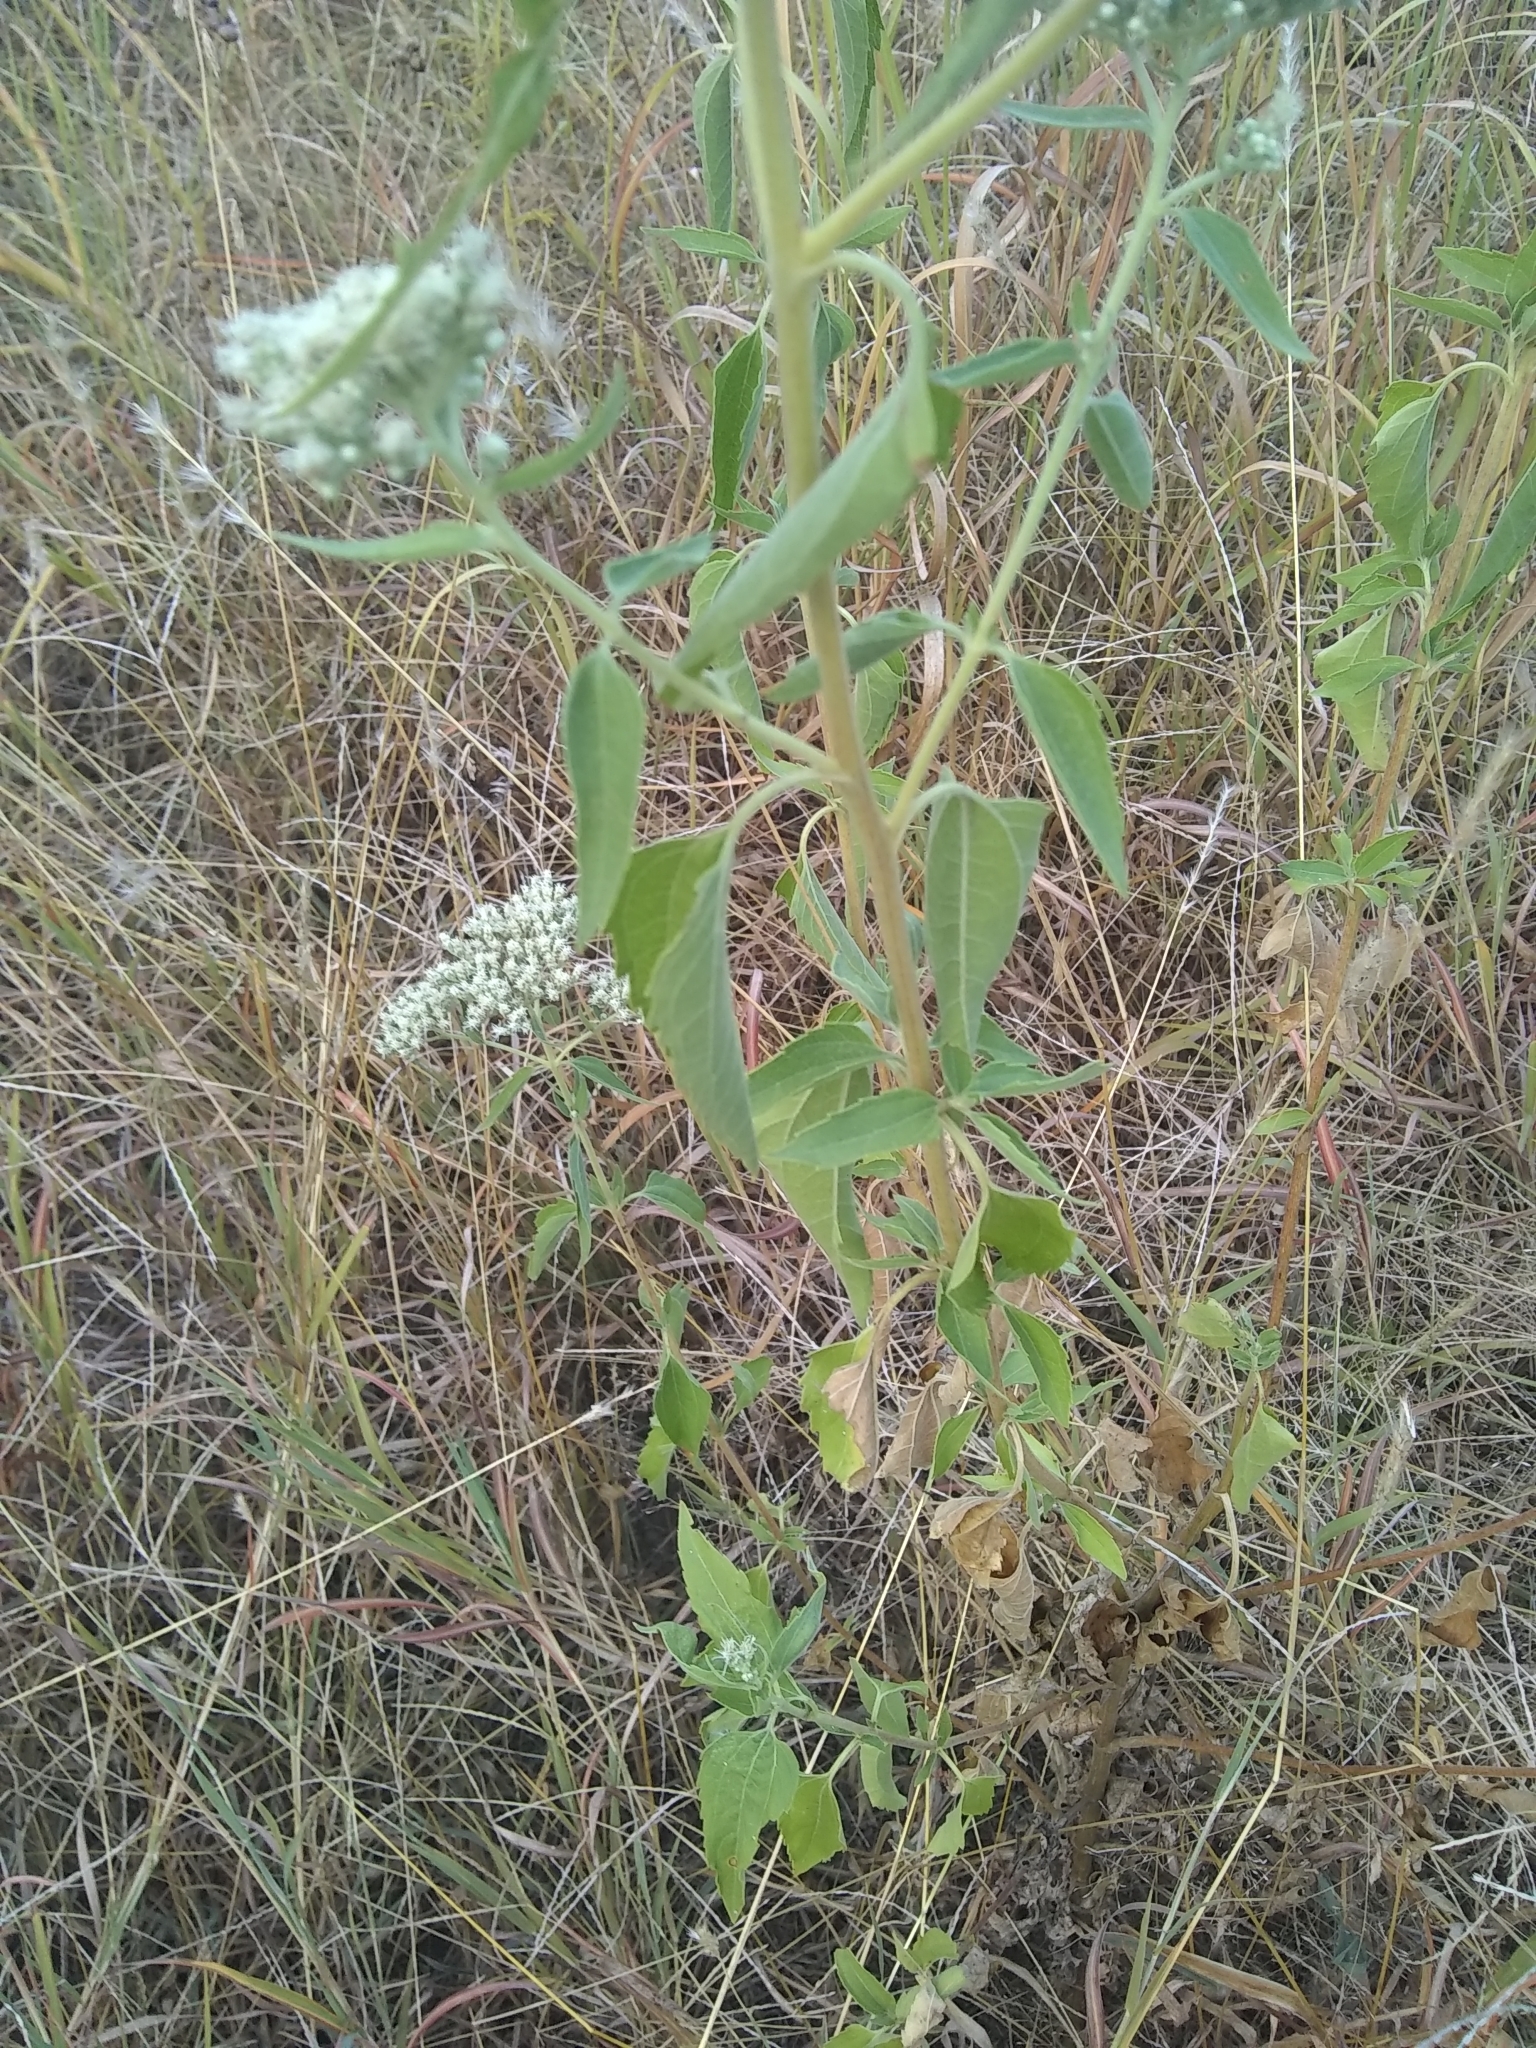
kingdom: Plantae
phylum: Tracheophyta
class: Magnoliopsida
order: Asterales
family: Asteraceae
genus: Eupatorium
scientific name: Eupatorium serotinum
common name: Late boneset
